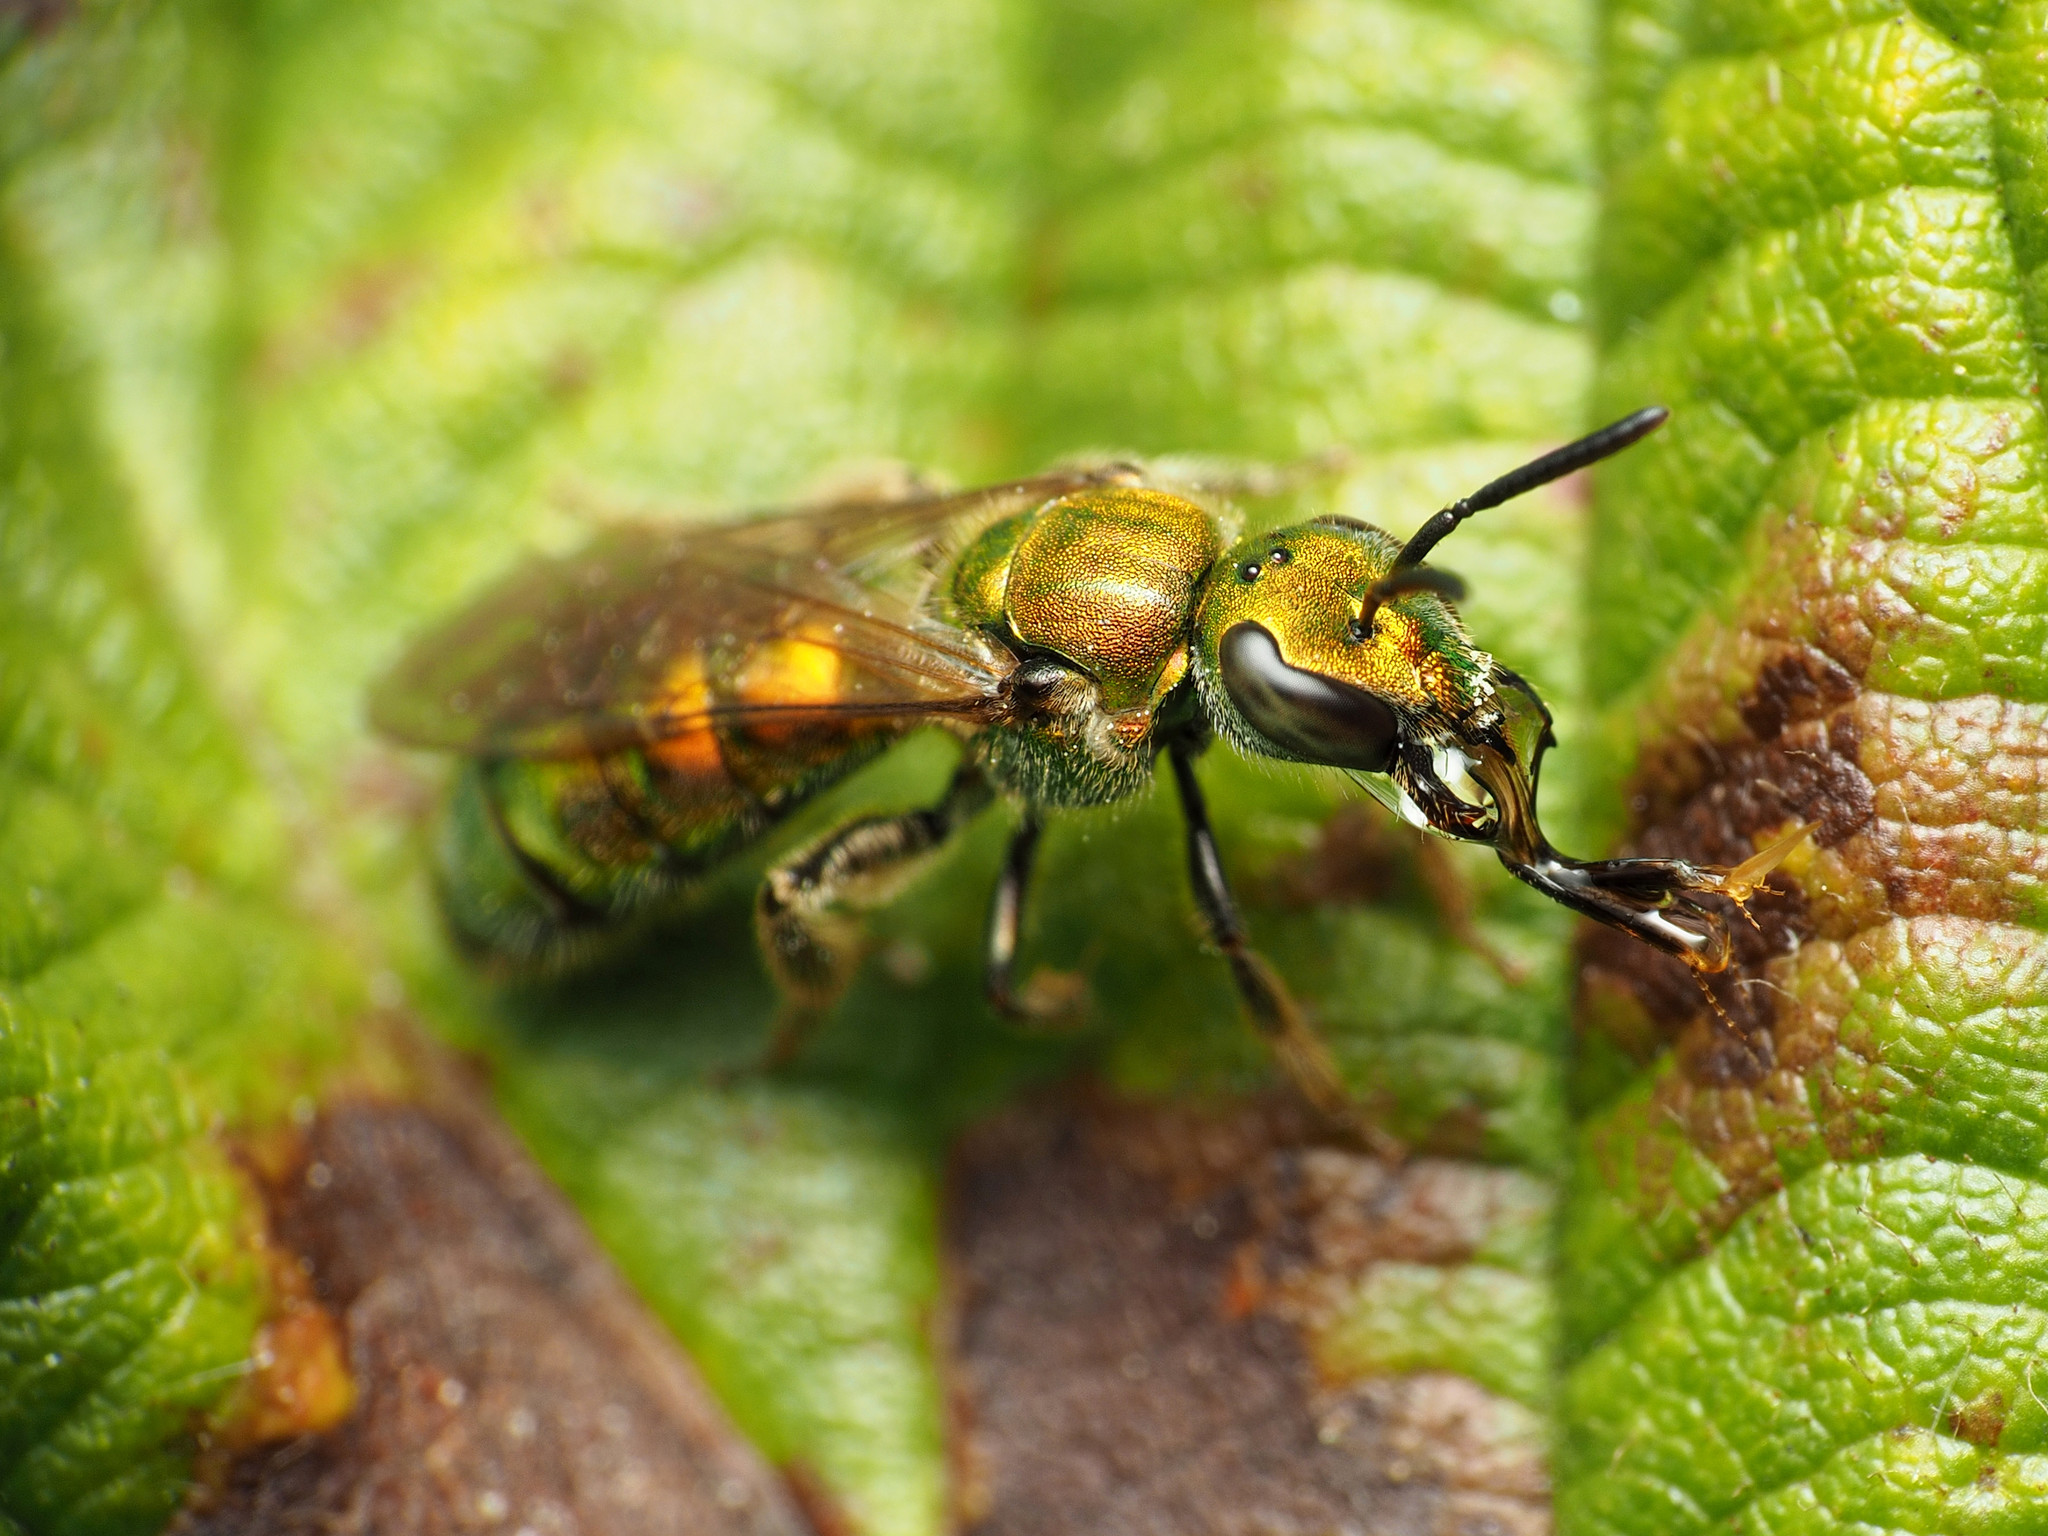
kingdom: Animalia
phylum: Arthropoda
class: Insecta
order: Hymenoptera
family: Halictidae
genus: Augochlora
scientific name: Augochlora pura
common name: Pure green sweat bee
